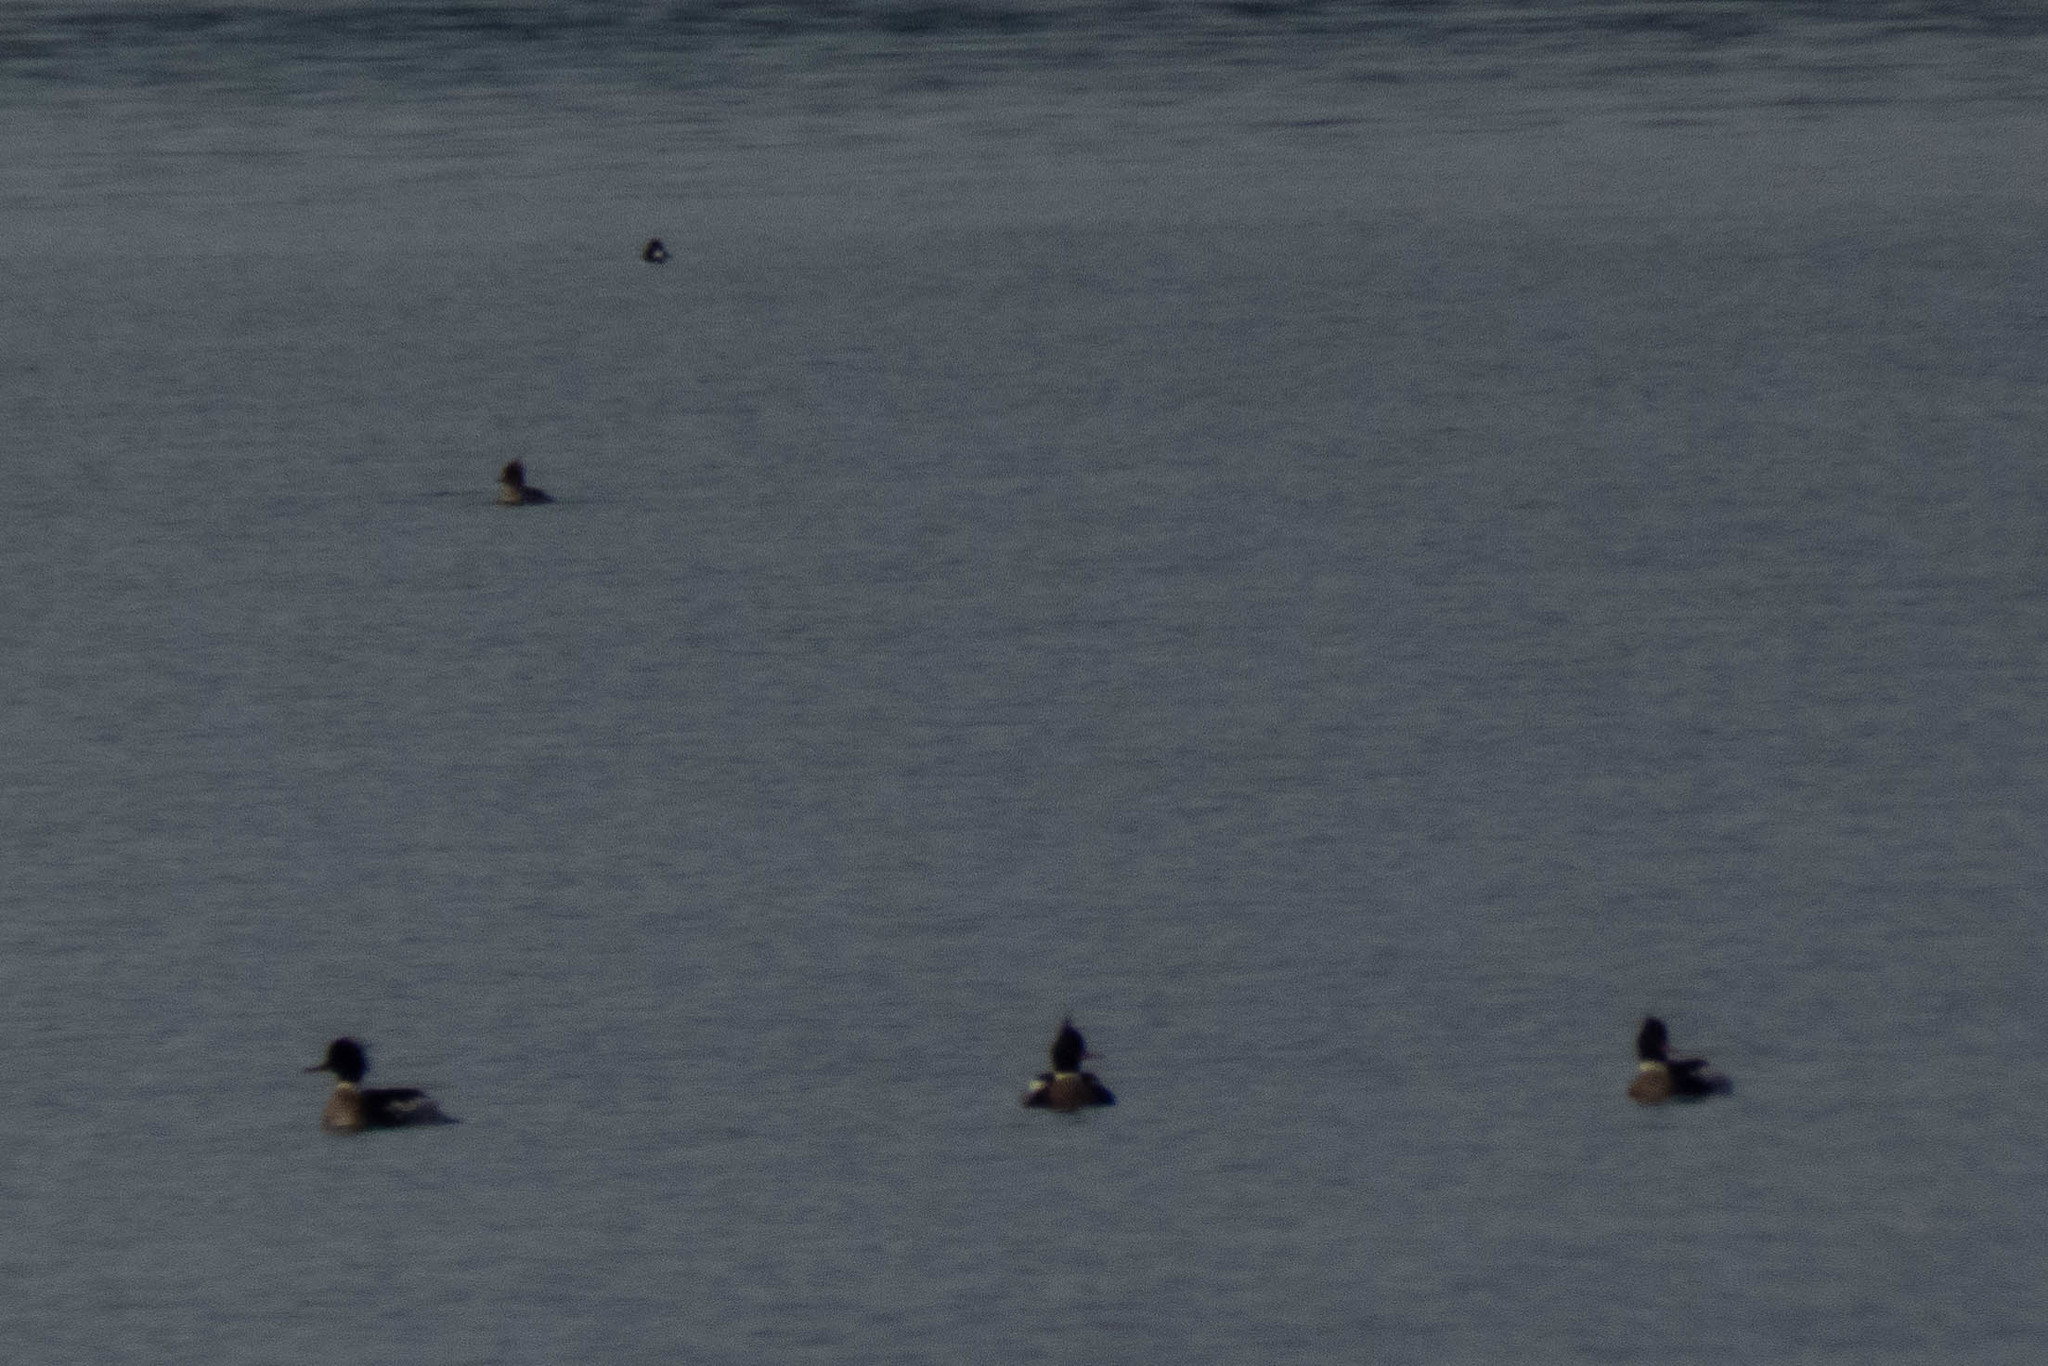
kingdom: Animalia
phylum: Chordata
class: Aves
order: Anseriformes
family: Anatidae
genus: Mergus
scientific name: Mergus serrator
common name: Red-breasted merganser
